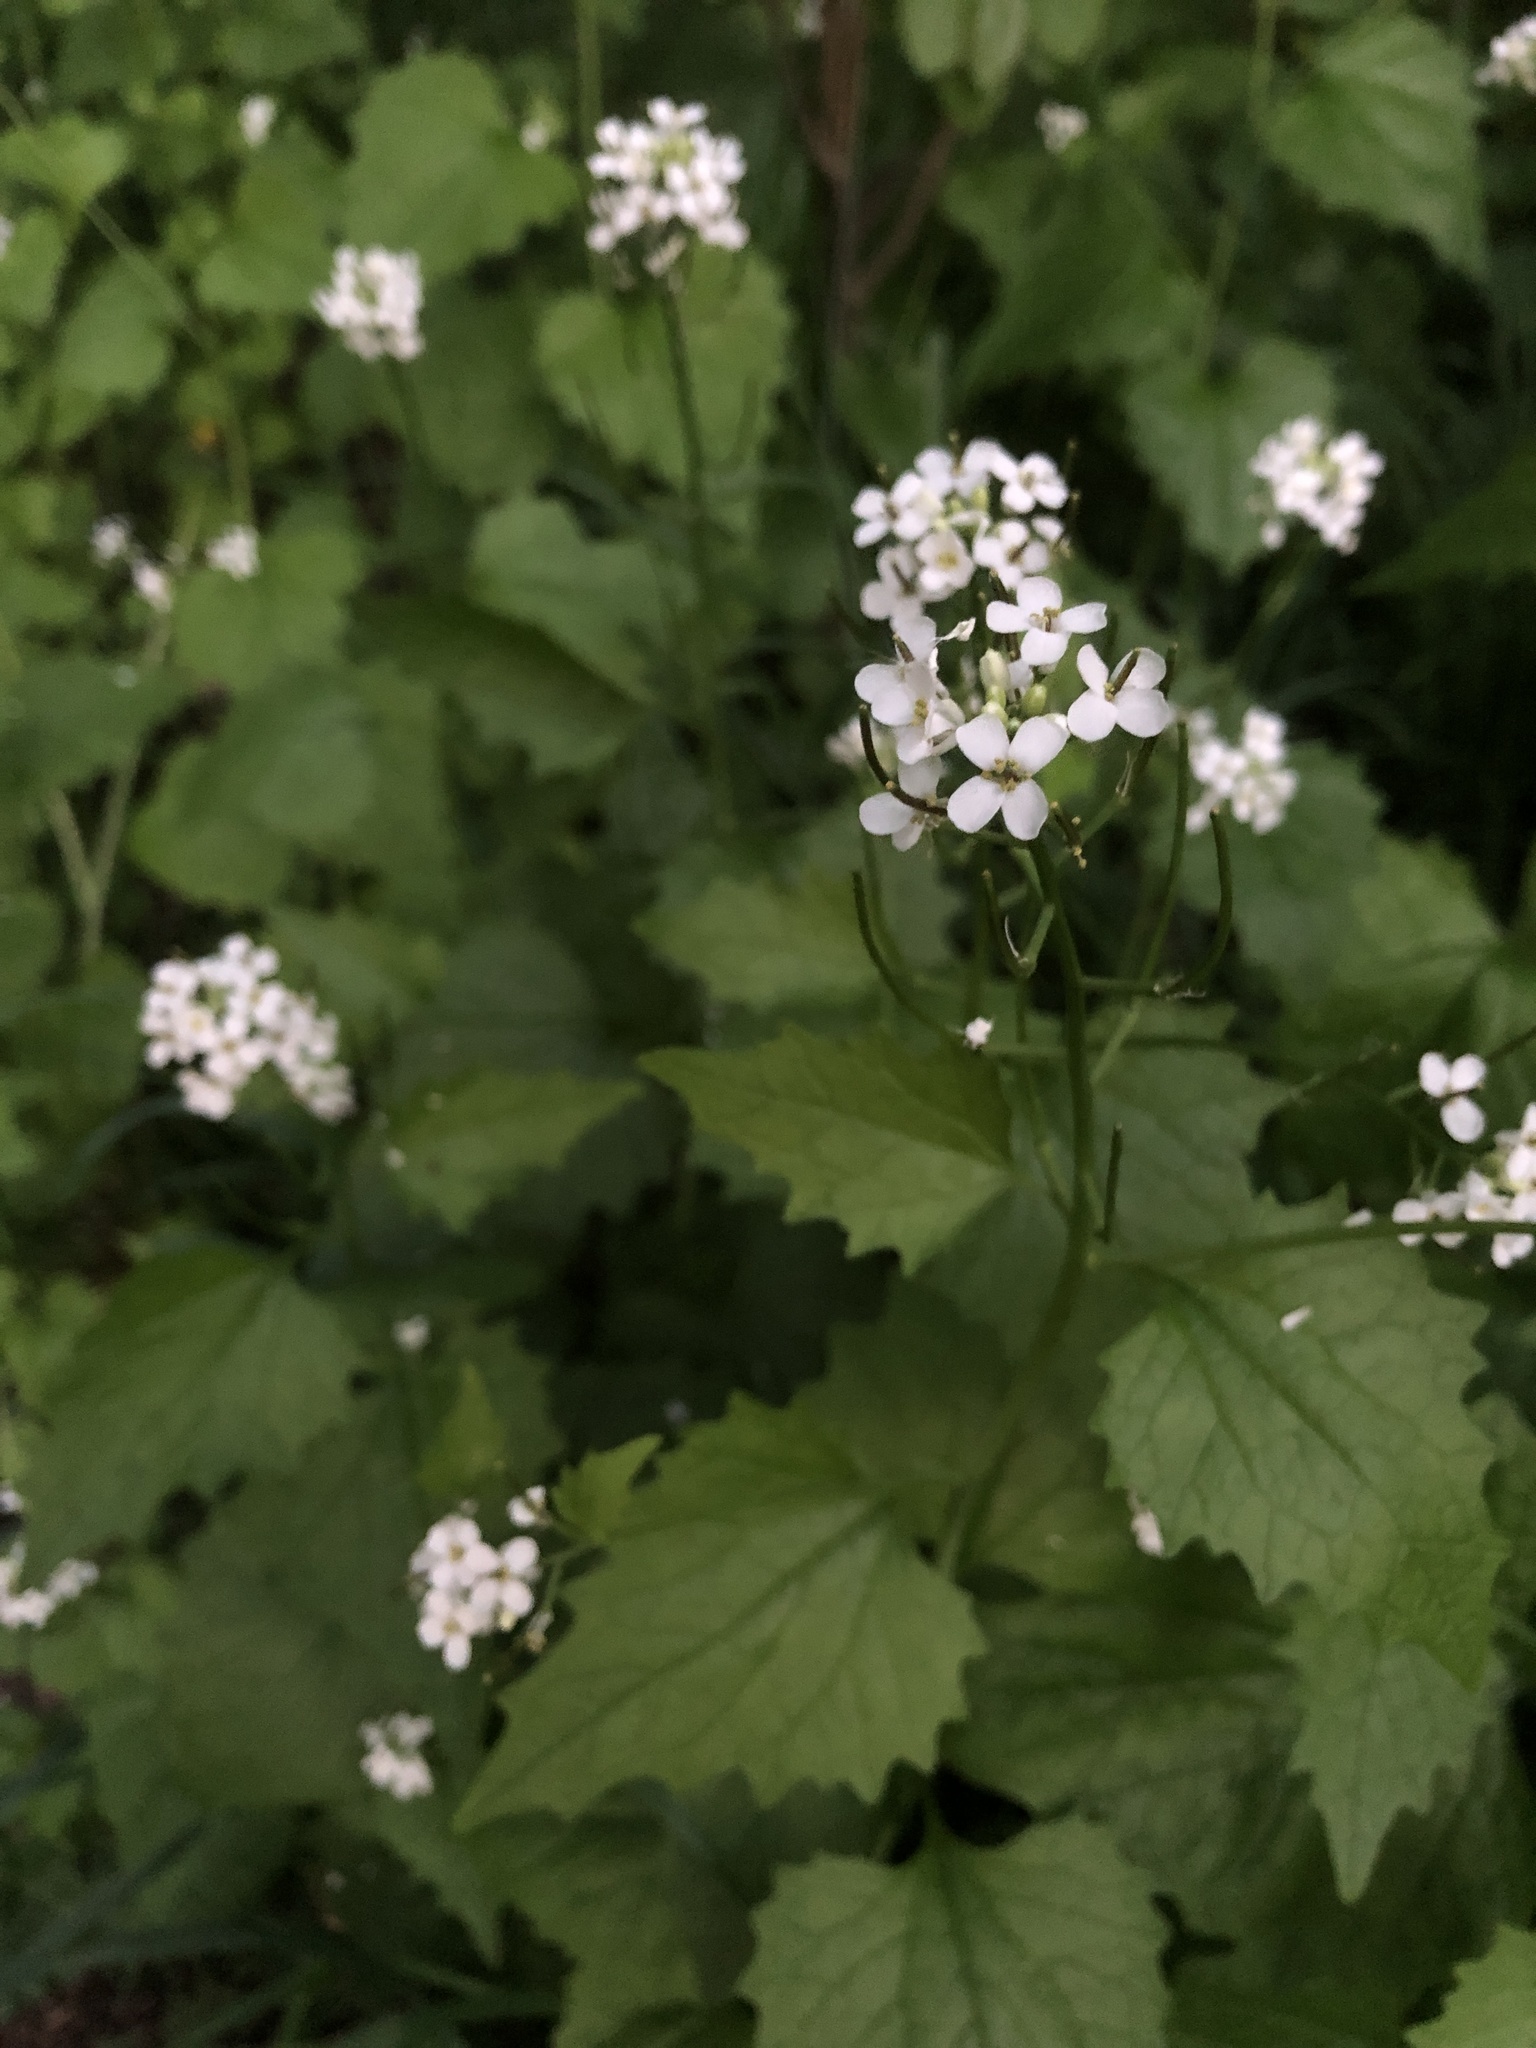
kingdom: Plantae
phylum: Tracheophyta
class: Magnoliopsida
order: Brassicales
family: Brassicaceae
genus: Alliaria
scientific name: Alliaria petiolata
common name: Garlic mustard
